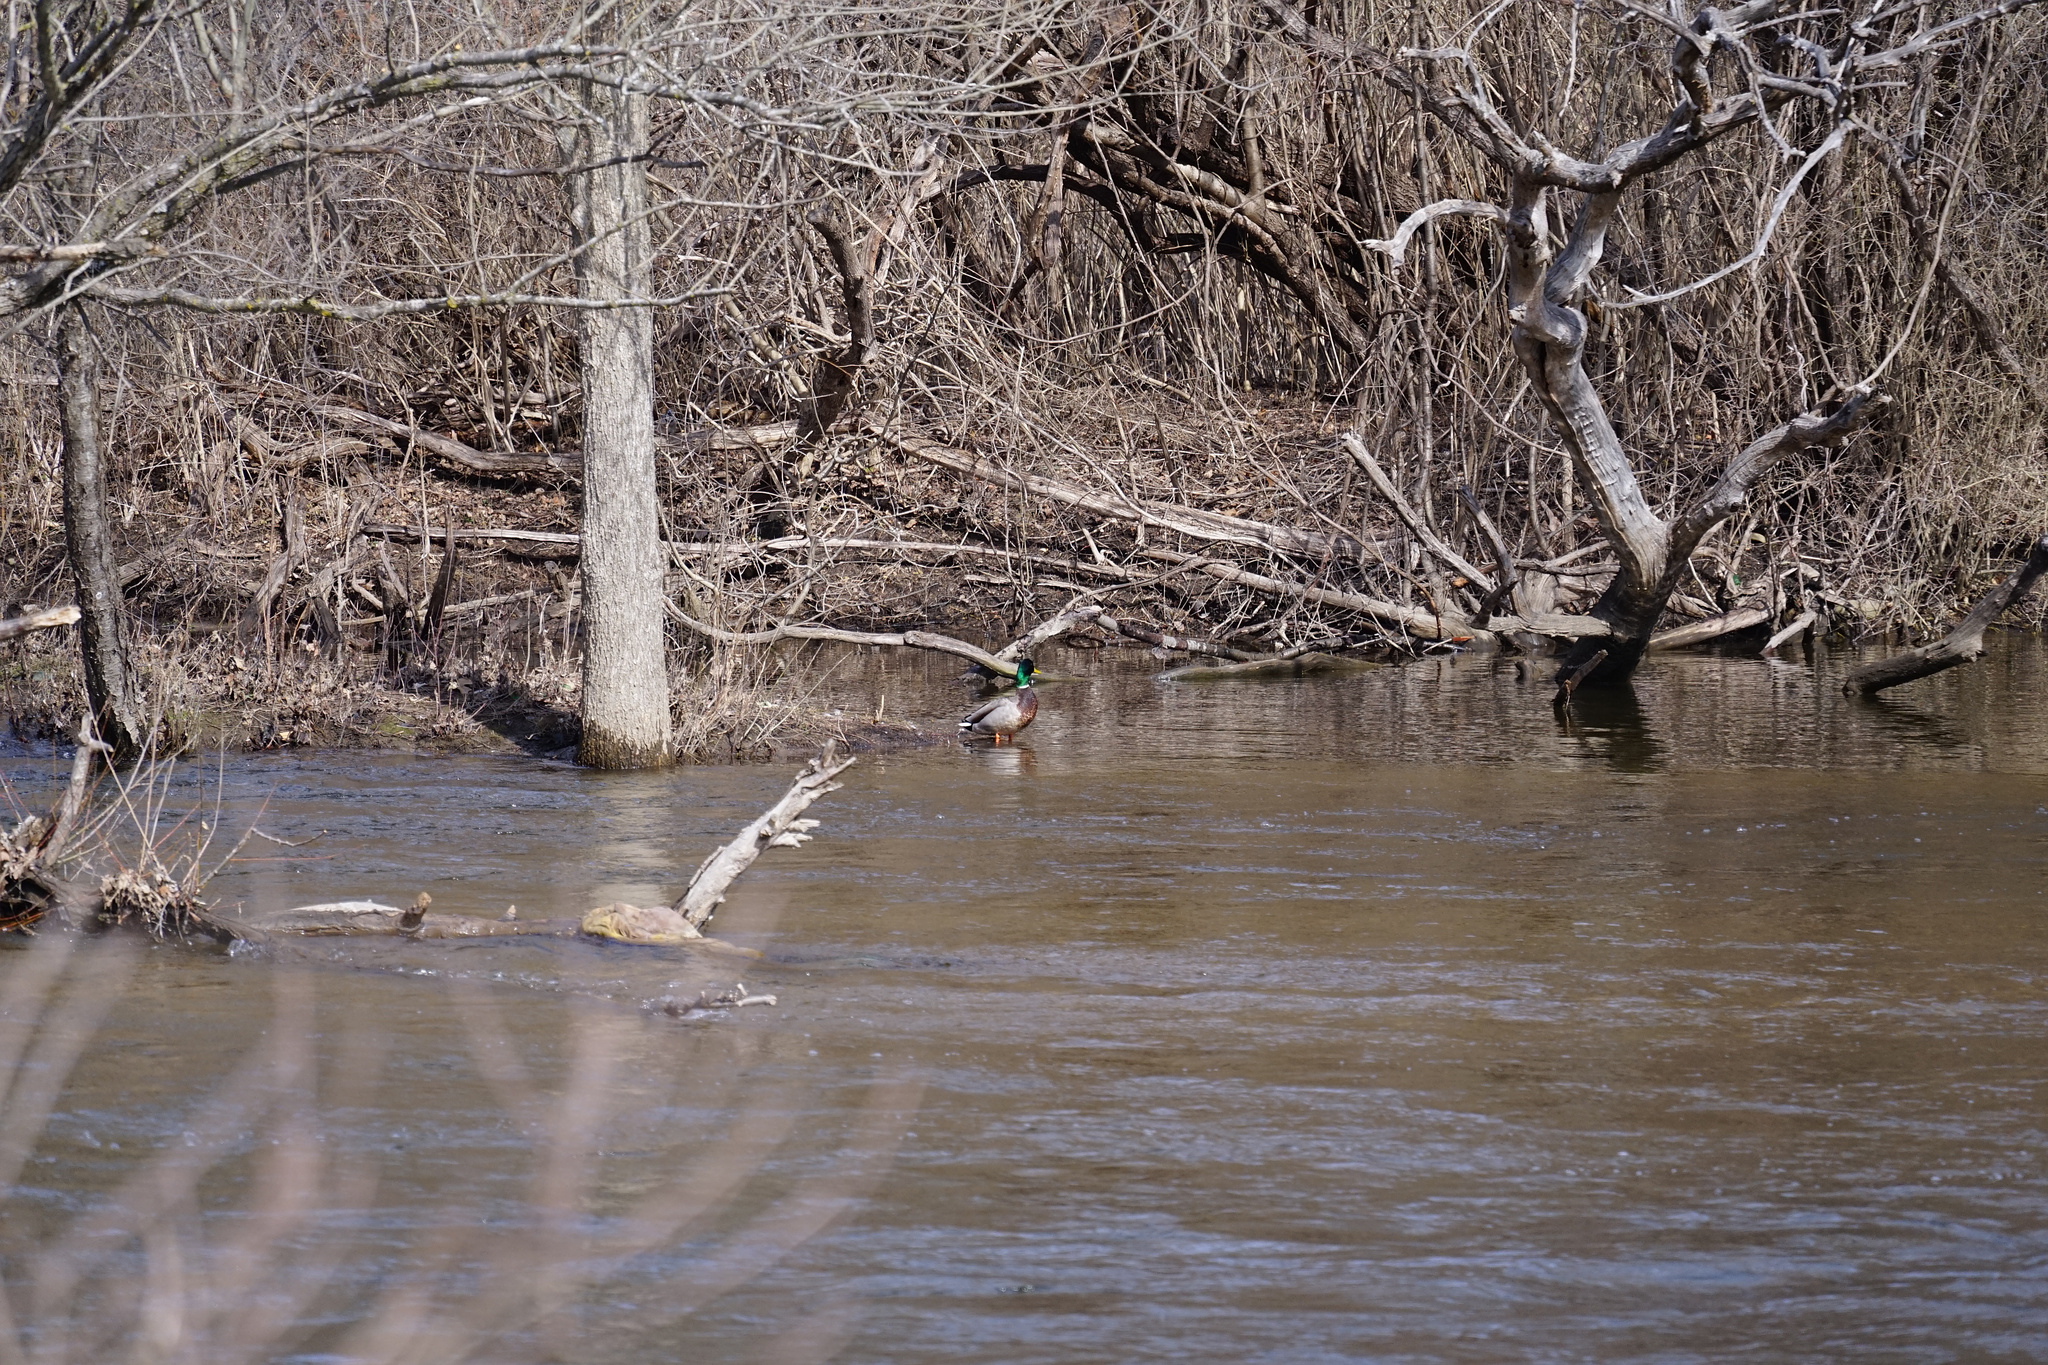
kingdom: Animalia
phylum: Chordata
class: Aves
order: Anseriformes
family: Anatidae
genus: Anas
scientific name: Anas platyrhynchos
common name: Mallard
